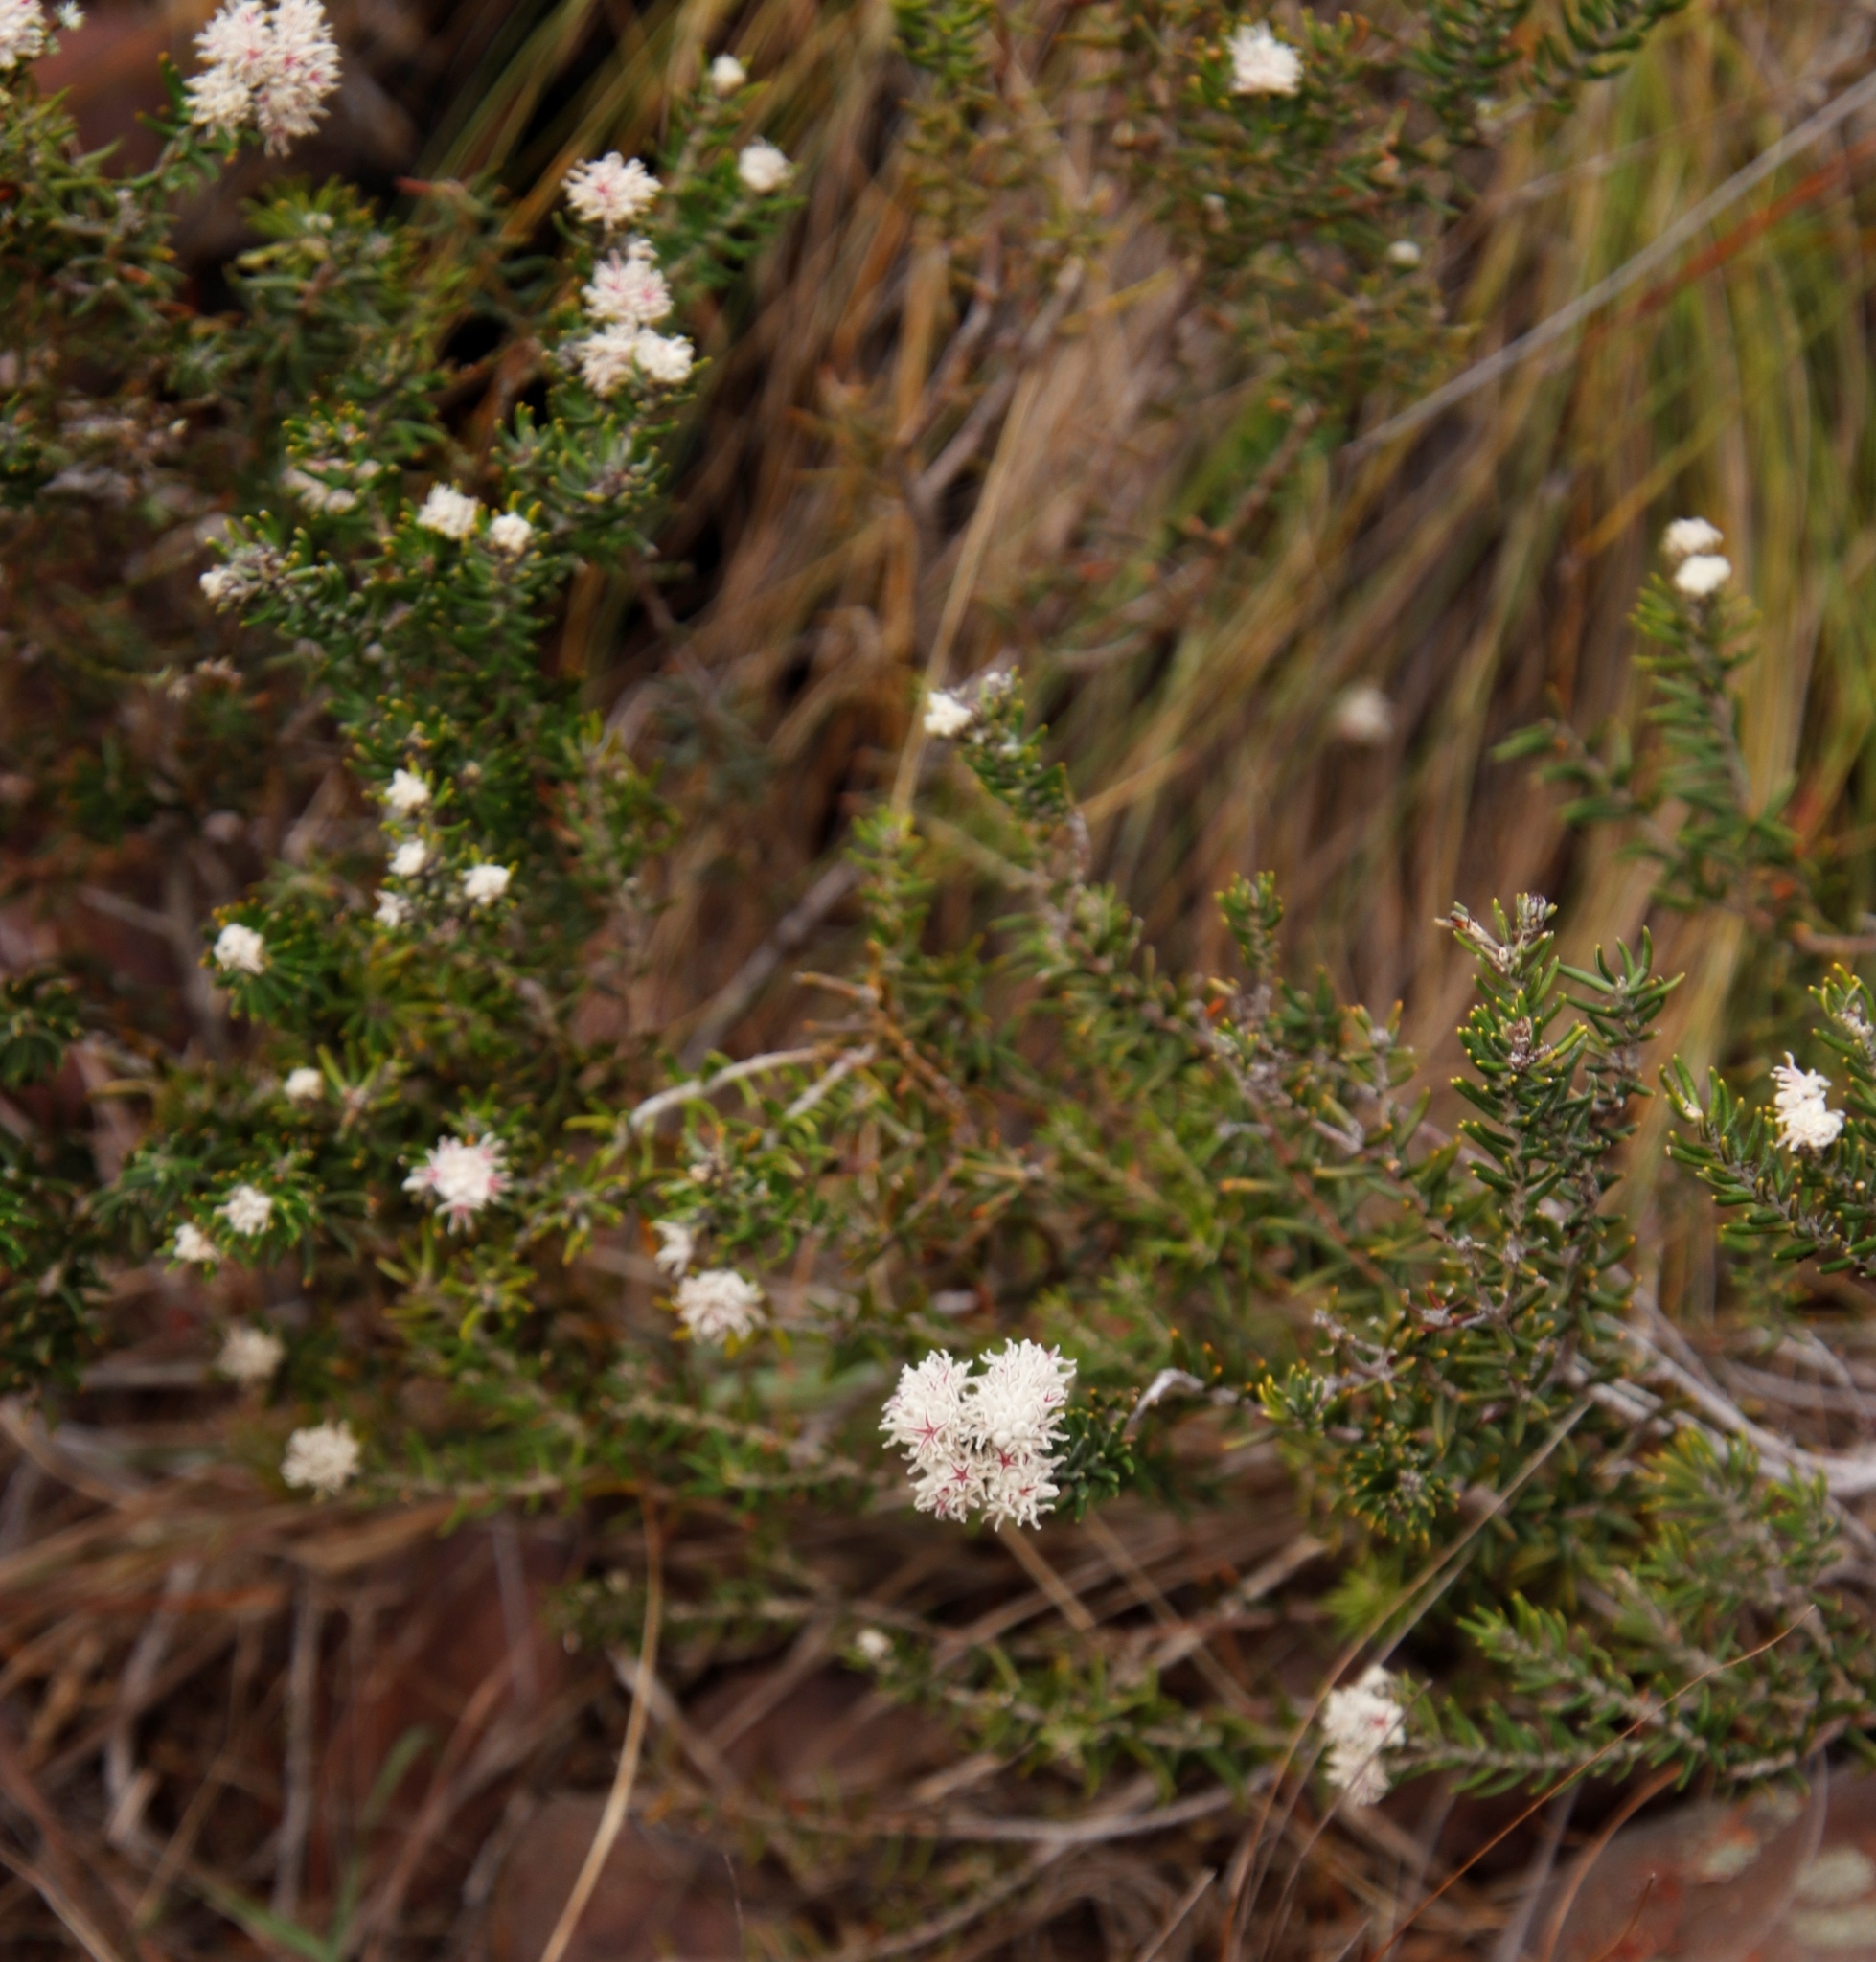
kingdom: Plantae
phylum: Tracheophyta
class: Magnoliopsida
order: Rosales
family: Rhamnaceae
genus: Trichocephalus
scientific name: Trichocephalus stipularis
